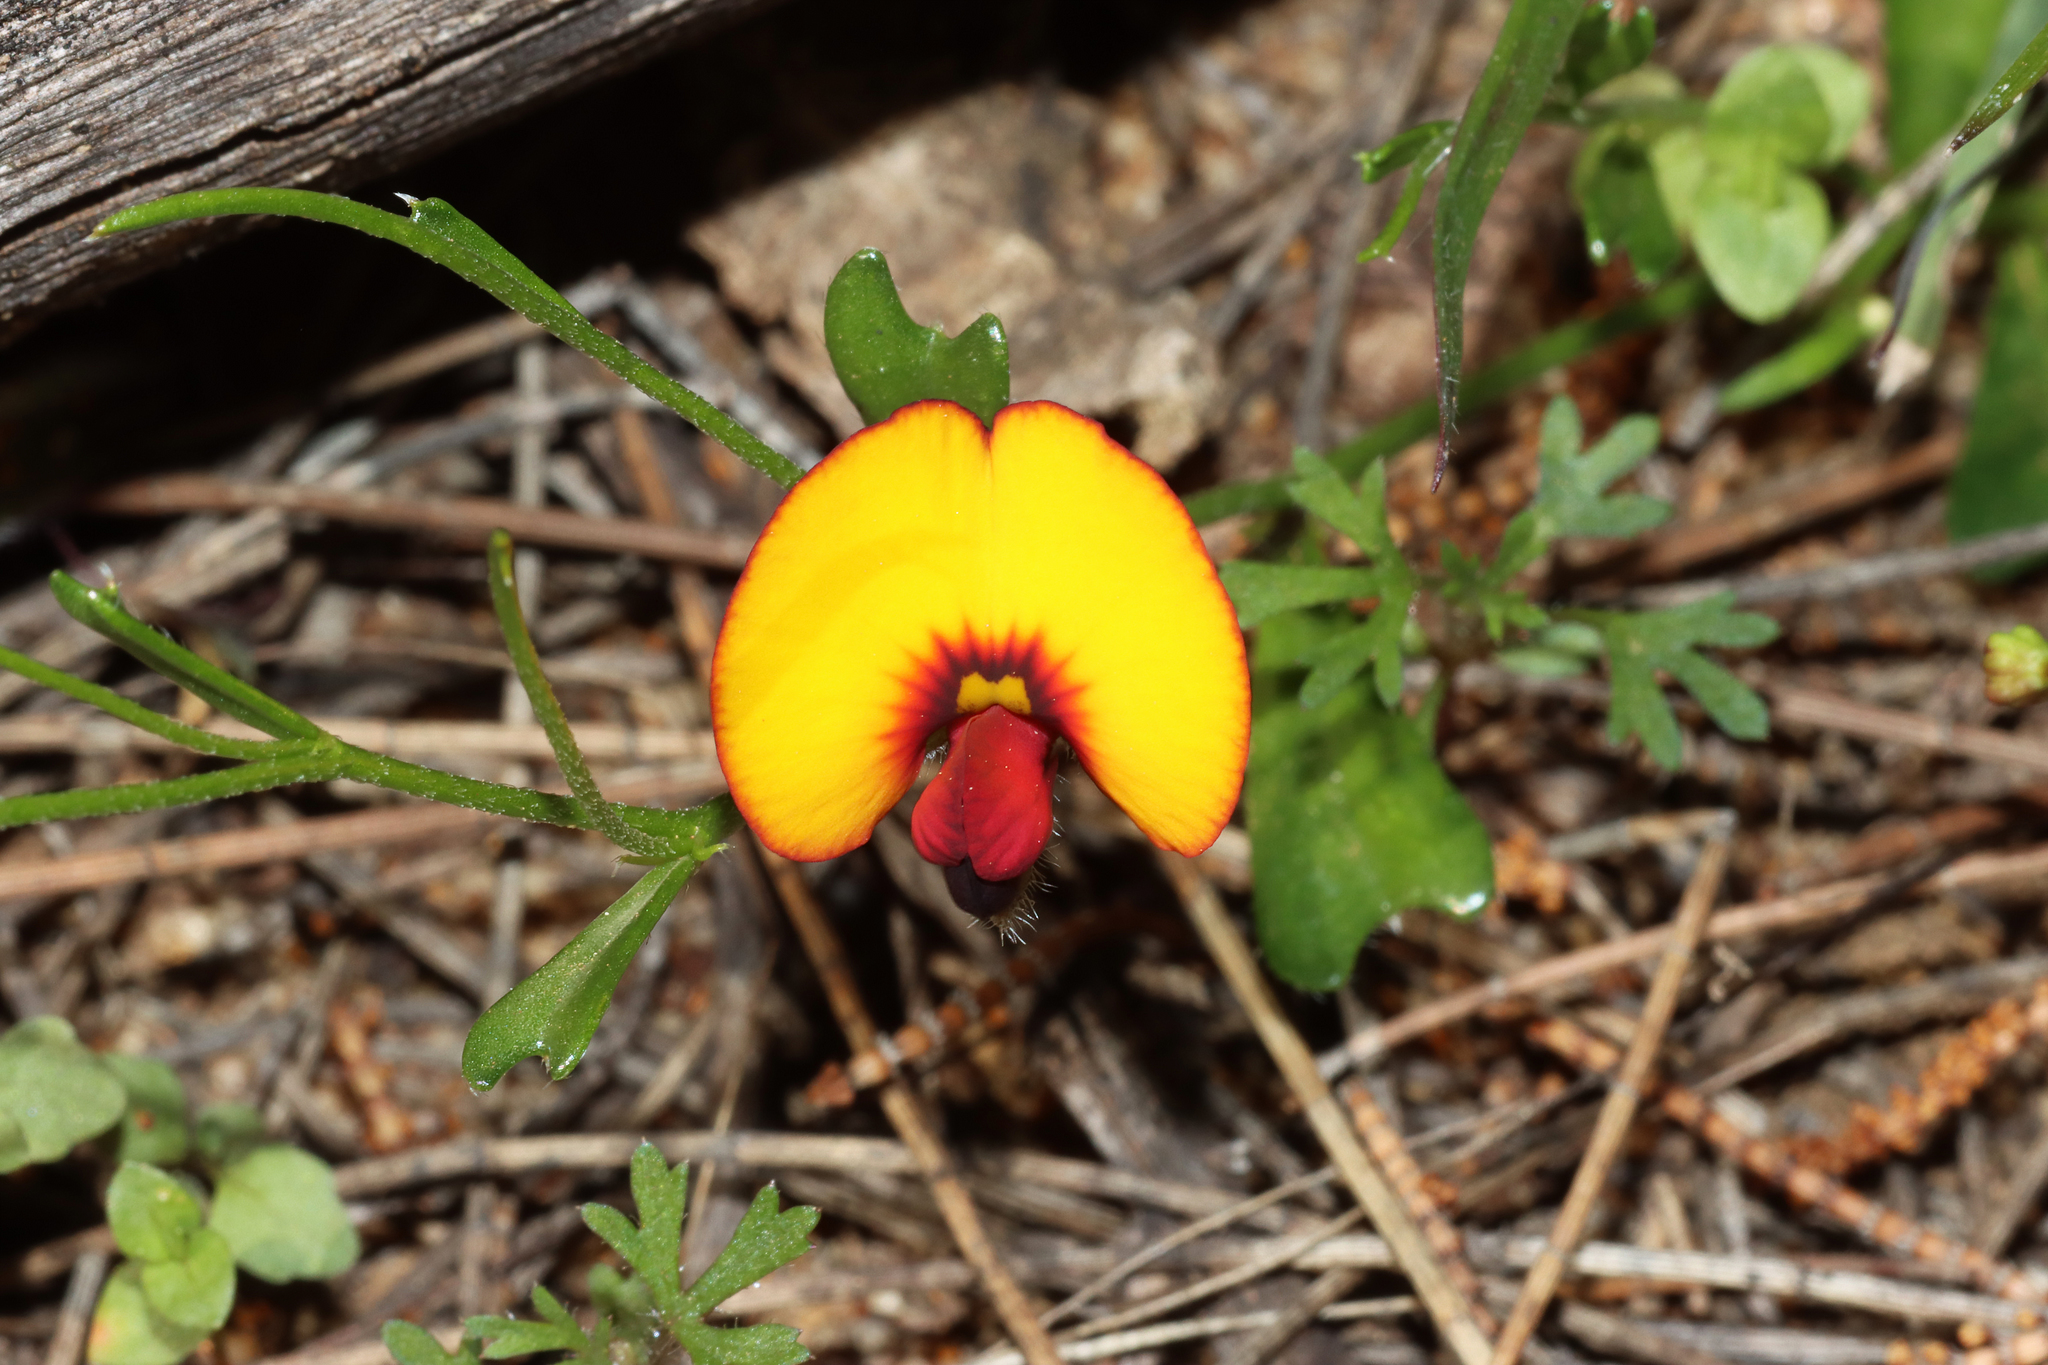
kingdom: Plantae
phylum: Tracheophyta
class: Magnoliopsida
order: Fabales
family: Fabaceae
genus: Isotropis
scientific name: Isotropis cuneifolia
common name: Granny bonnets
